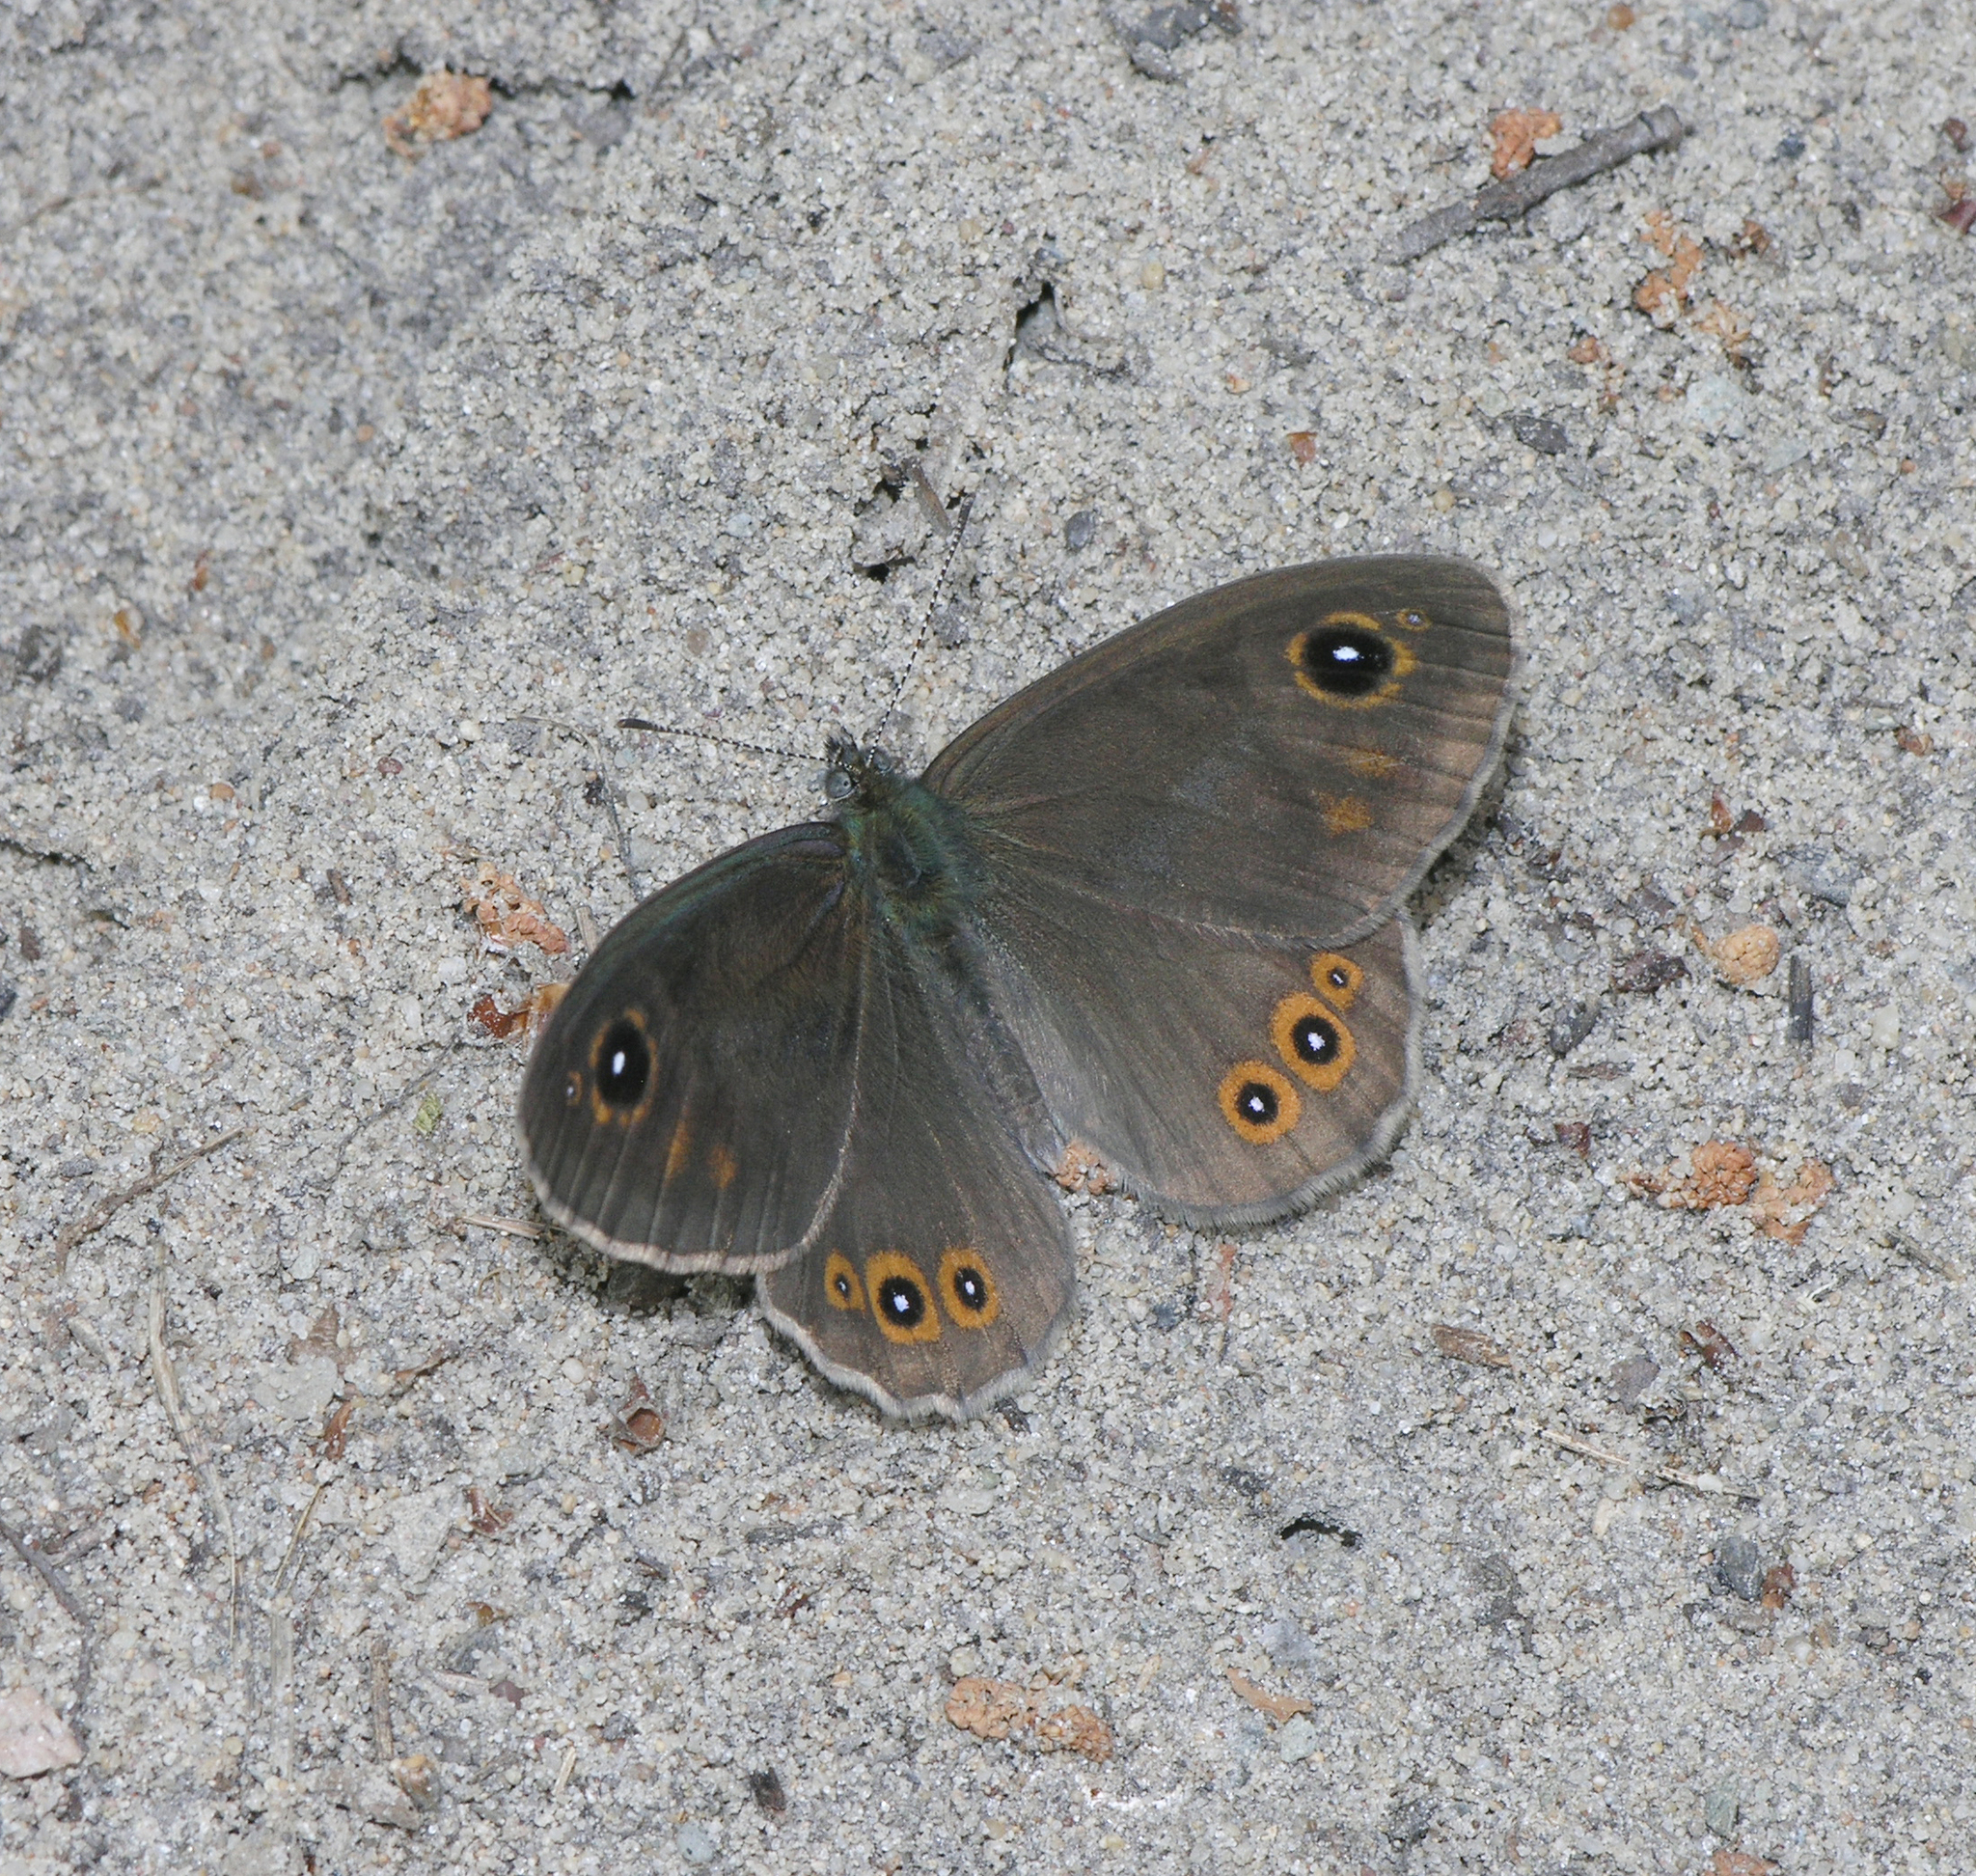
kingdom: Animalia
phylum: Arthropoda
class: Insecta
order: Lepidoptera
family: Nymphalidae
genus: Pararge
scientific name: Pararge Lasiommata maera
